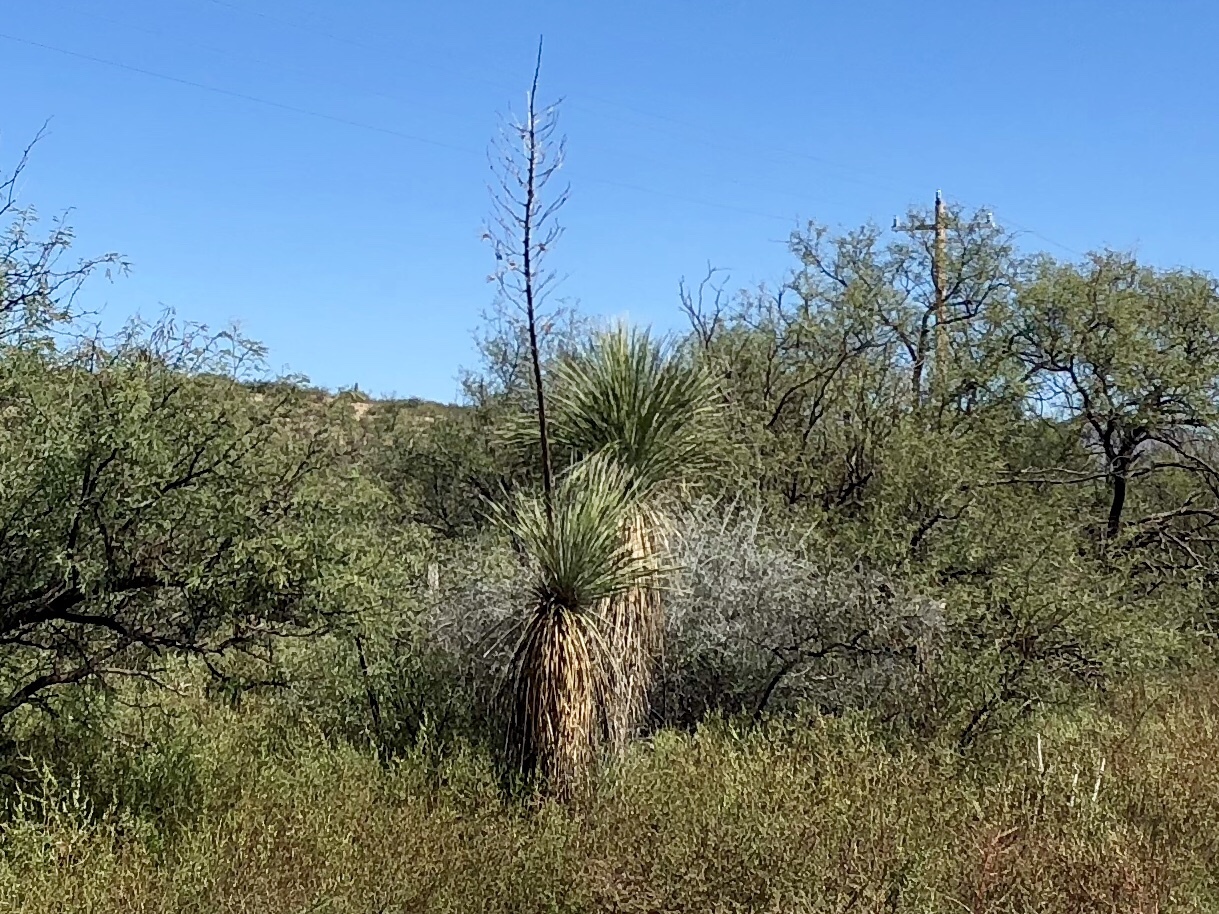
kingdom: Plantae
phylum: Tracheophyta
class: Liliopsida
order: Asparagales
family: Asparagaceae
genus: Yucca
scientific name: Yucca elata
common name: Palmella
